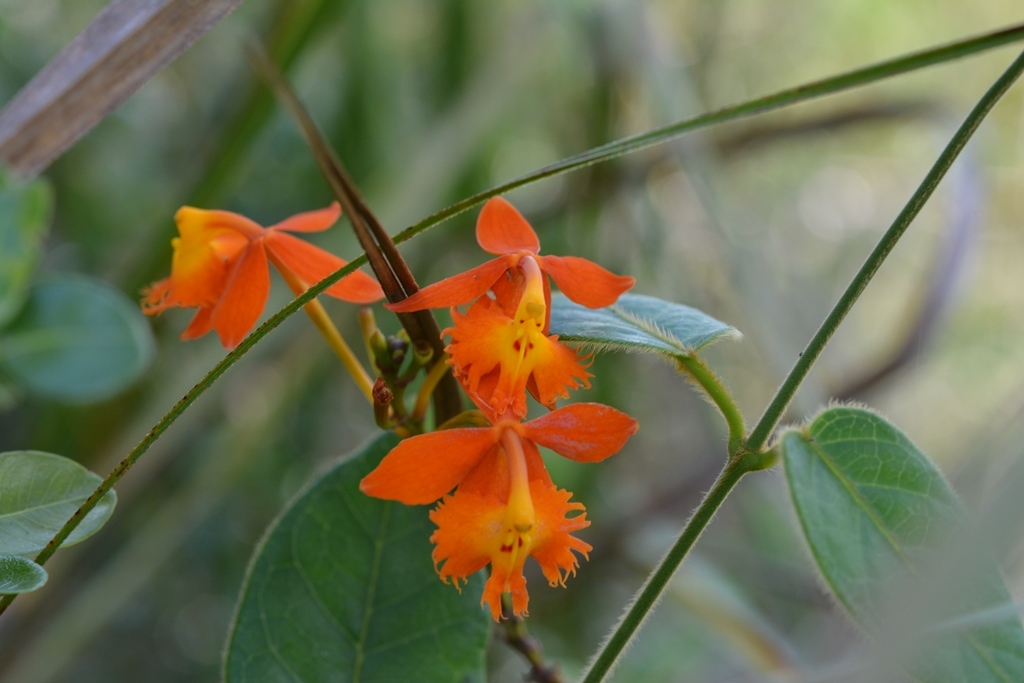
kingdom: Plantae
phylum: Tracheophyta
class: Liliopsida
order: Asparagales
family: Orchidaceae
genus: Epidendrum
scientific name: Epidendrum radicans
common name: Fire star orchid
